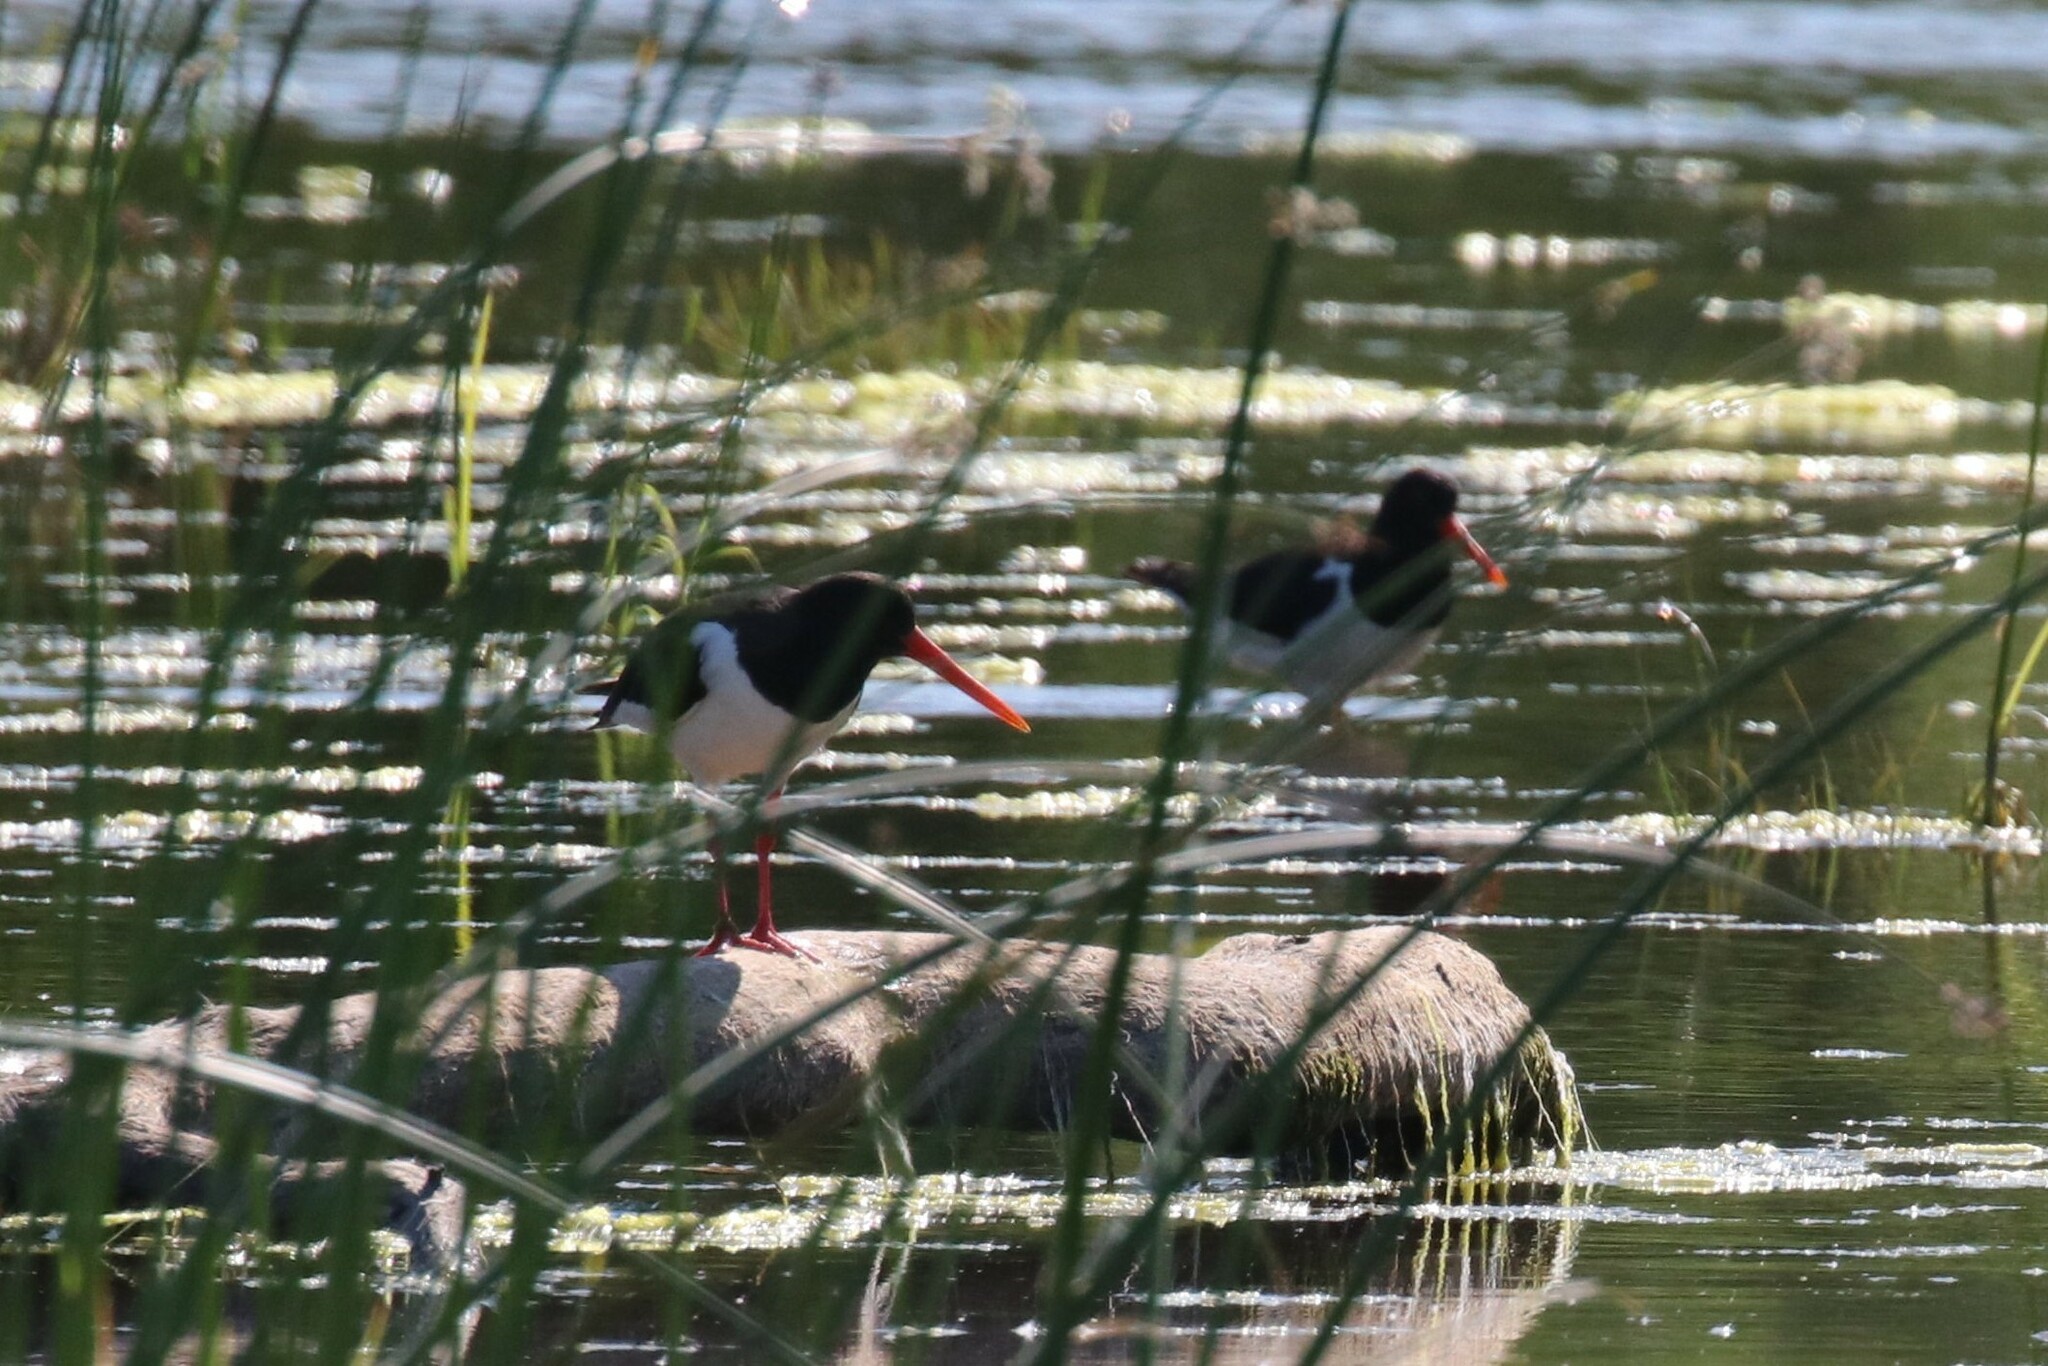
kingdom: Animalia
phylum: Chordata
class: Aves
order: Charadriiformes
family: Haematopodidae
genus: Haematopus
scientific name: Haematopus ostralegus
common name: Eurasian oystercatcher
